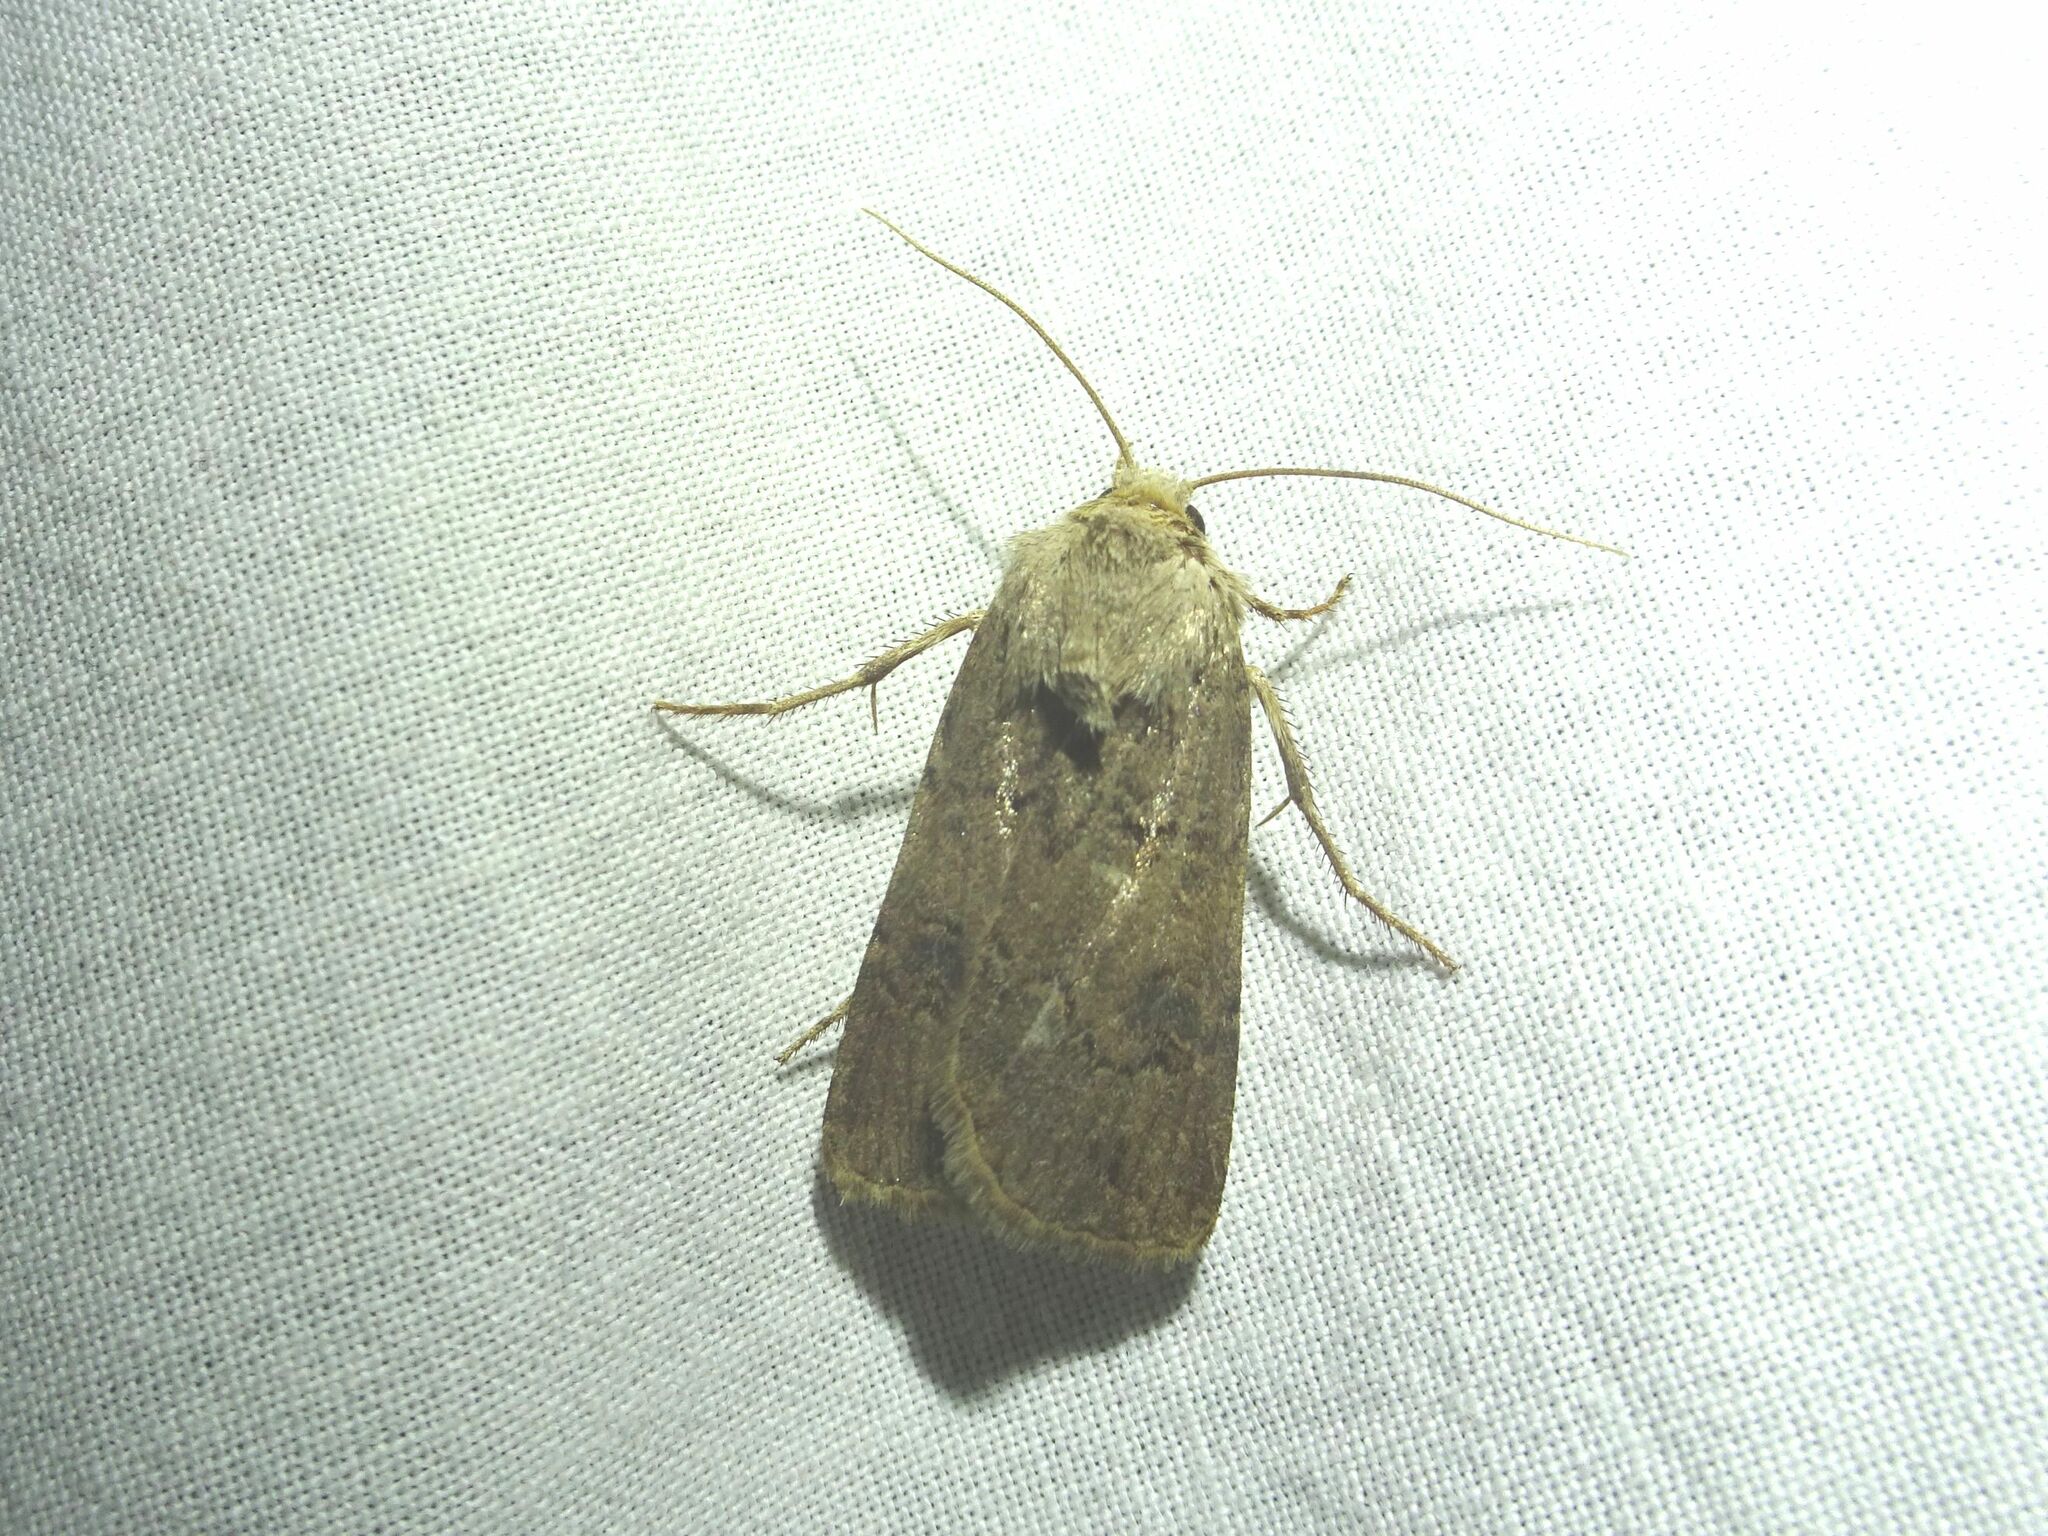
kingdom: Animalia
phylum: Arthropoda
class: Insecta
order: Lepidoptera
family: Noctuidae
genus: Agrotis
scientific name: Agrotis segetum
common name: Turnip moth
